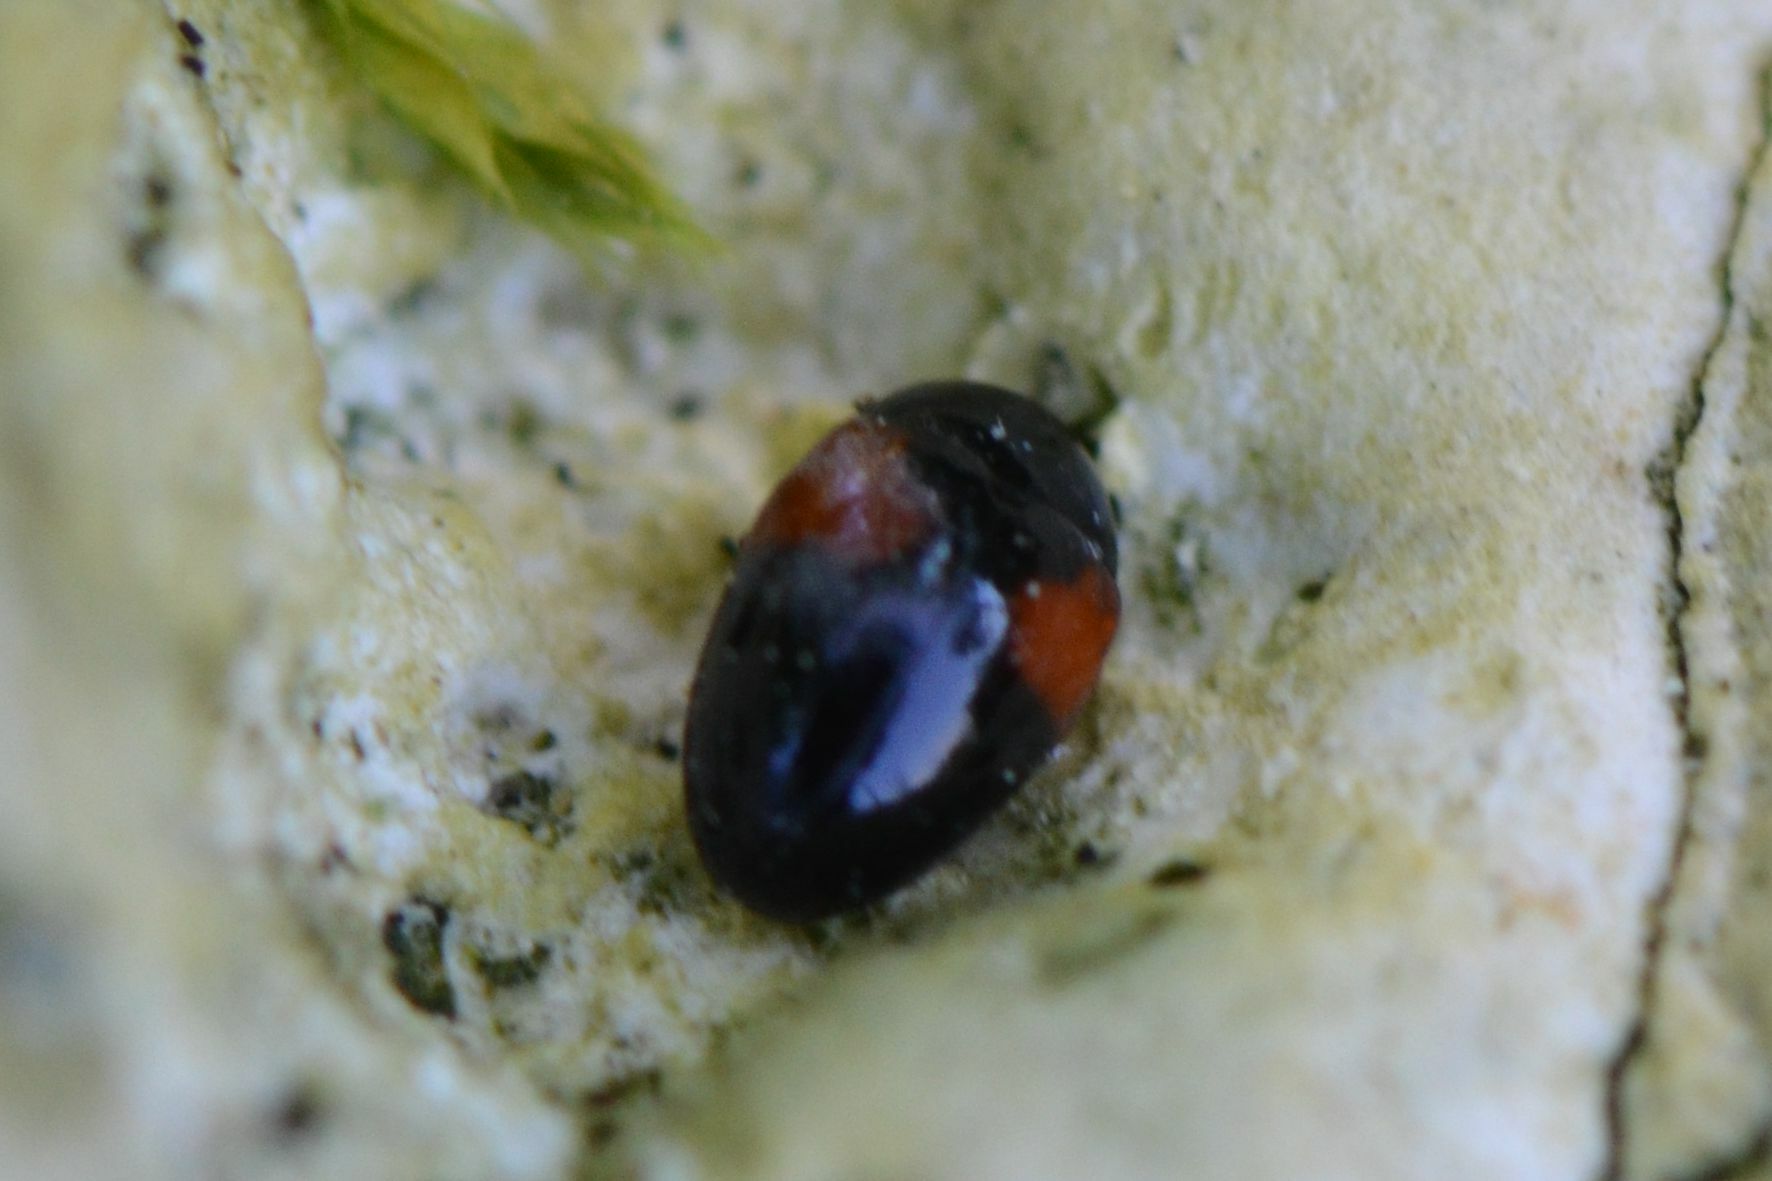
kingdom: Animalia
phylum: Arthropoda
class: Insecta
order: Coleoptera
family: Erotylidae
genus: Tritoma
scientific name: Tritoma bipustulata
